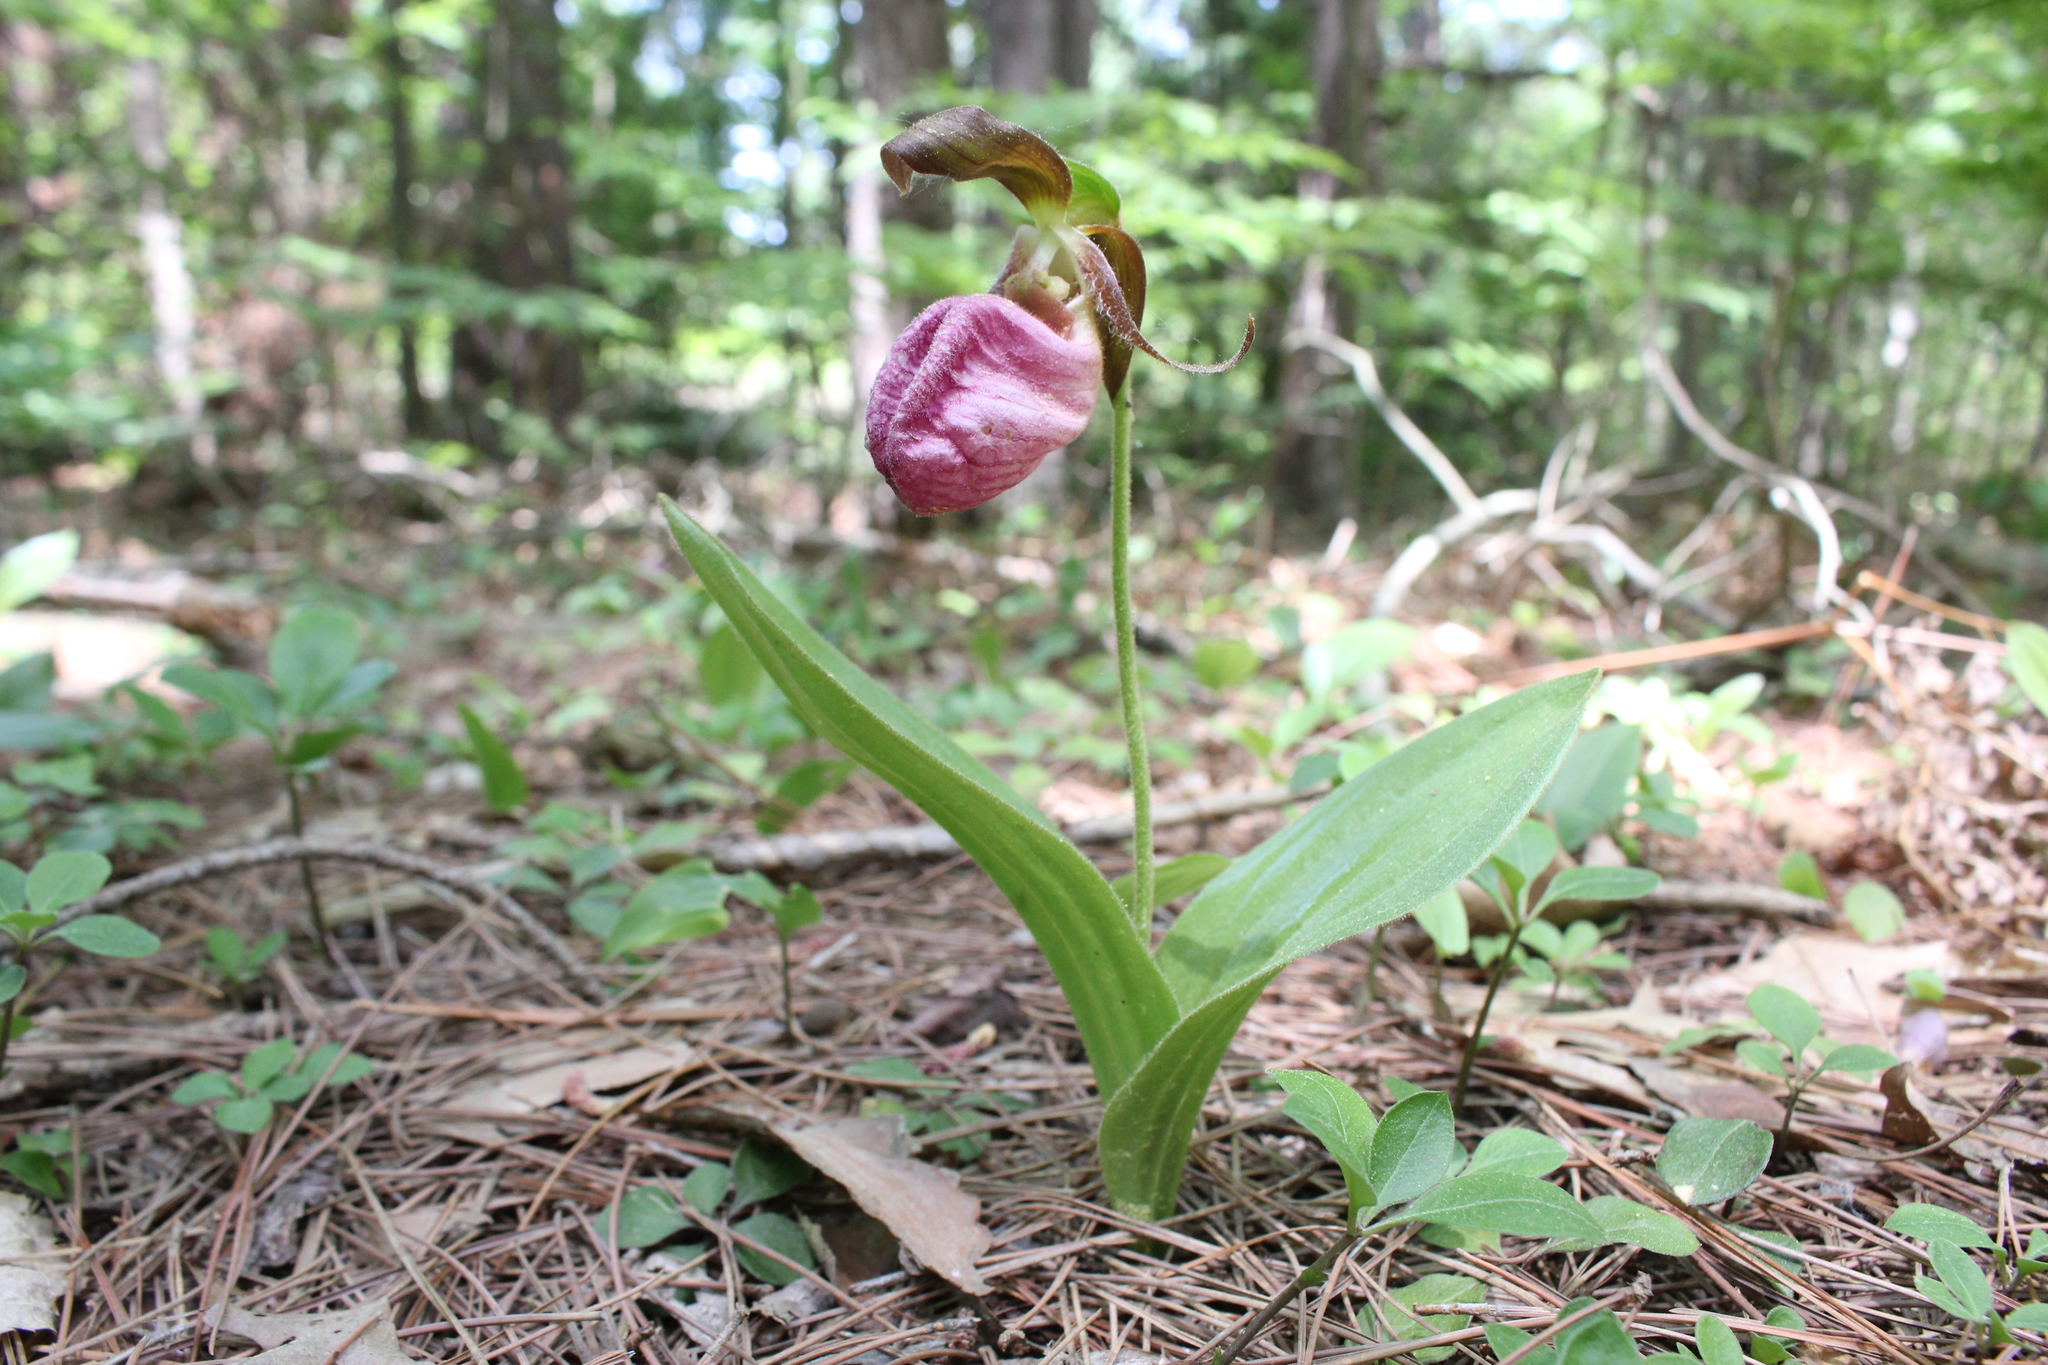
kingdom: Plantae
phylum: Tracheophyta
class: Liliopsida
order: Asparagales
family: Orchidaceae
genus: Cypripedium
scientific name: Cypripedium acaule
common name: Pink lady's-slipper
